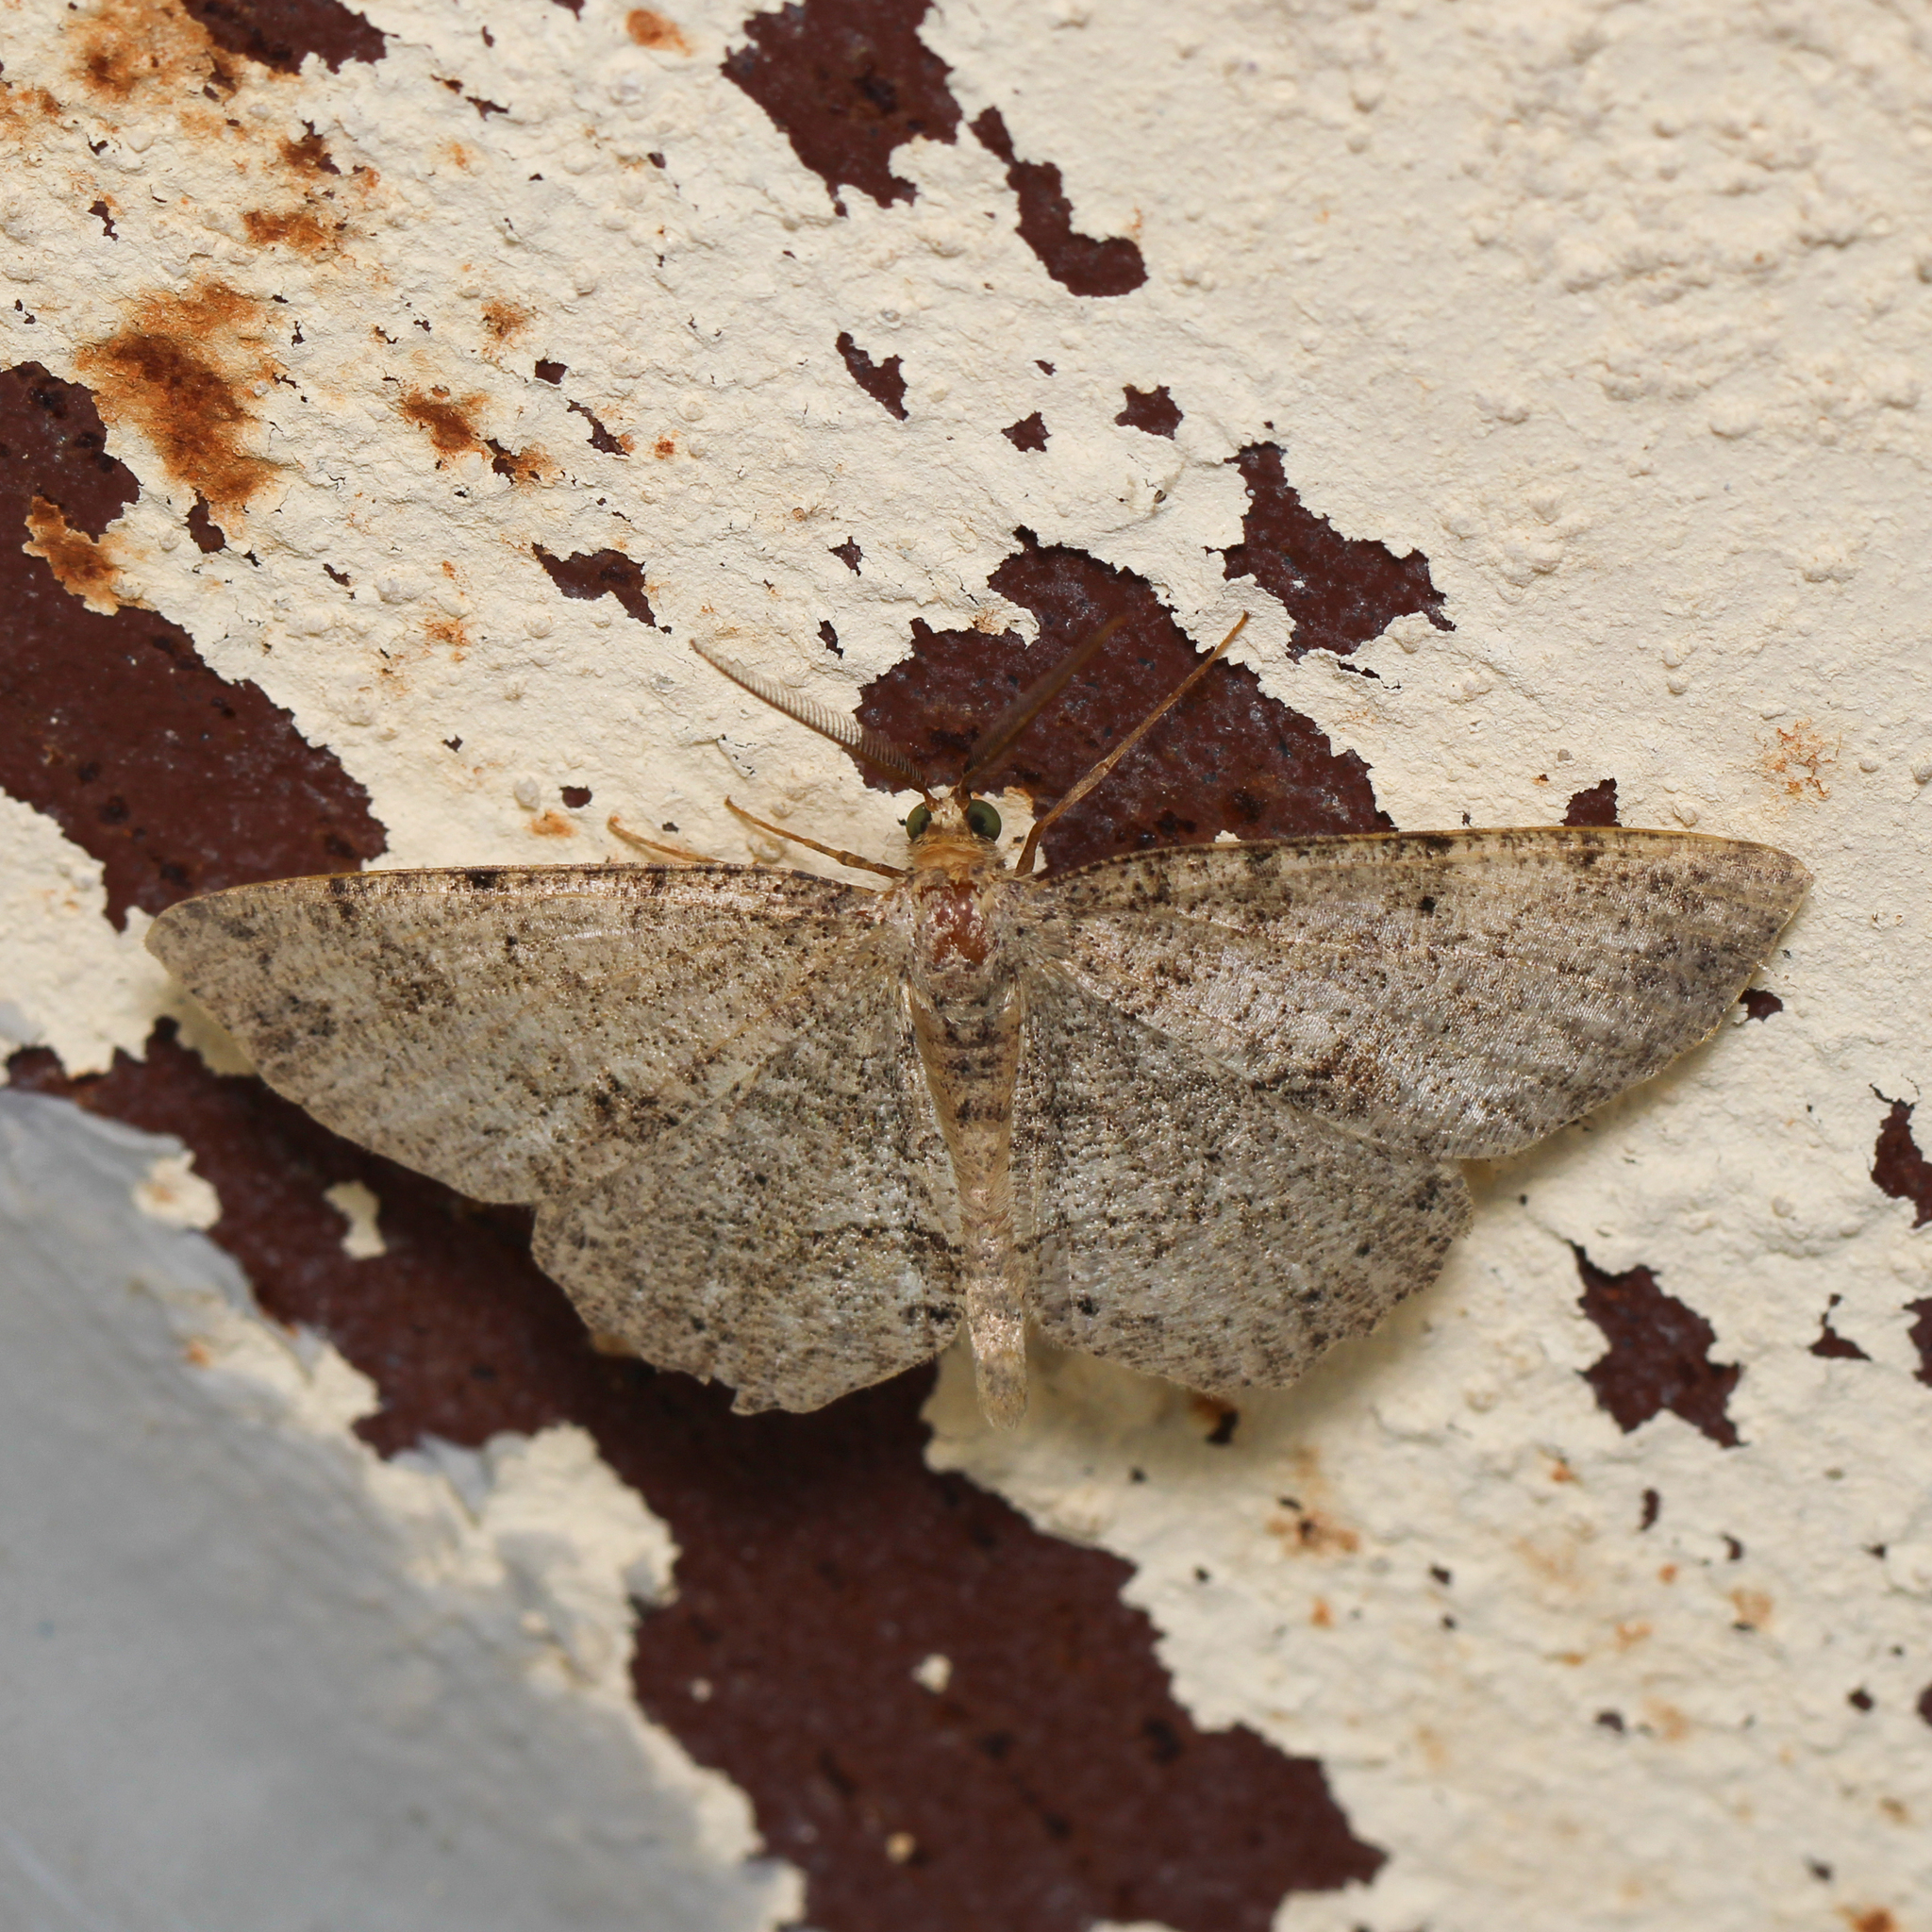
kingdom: Animalia
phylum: Arthropoda
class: Insecta
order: Lepidoptera
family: Geometridae
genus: Melanolophia
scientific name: Melanolophia canadaria
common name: Canadian melanolophia
